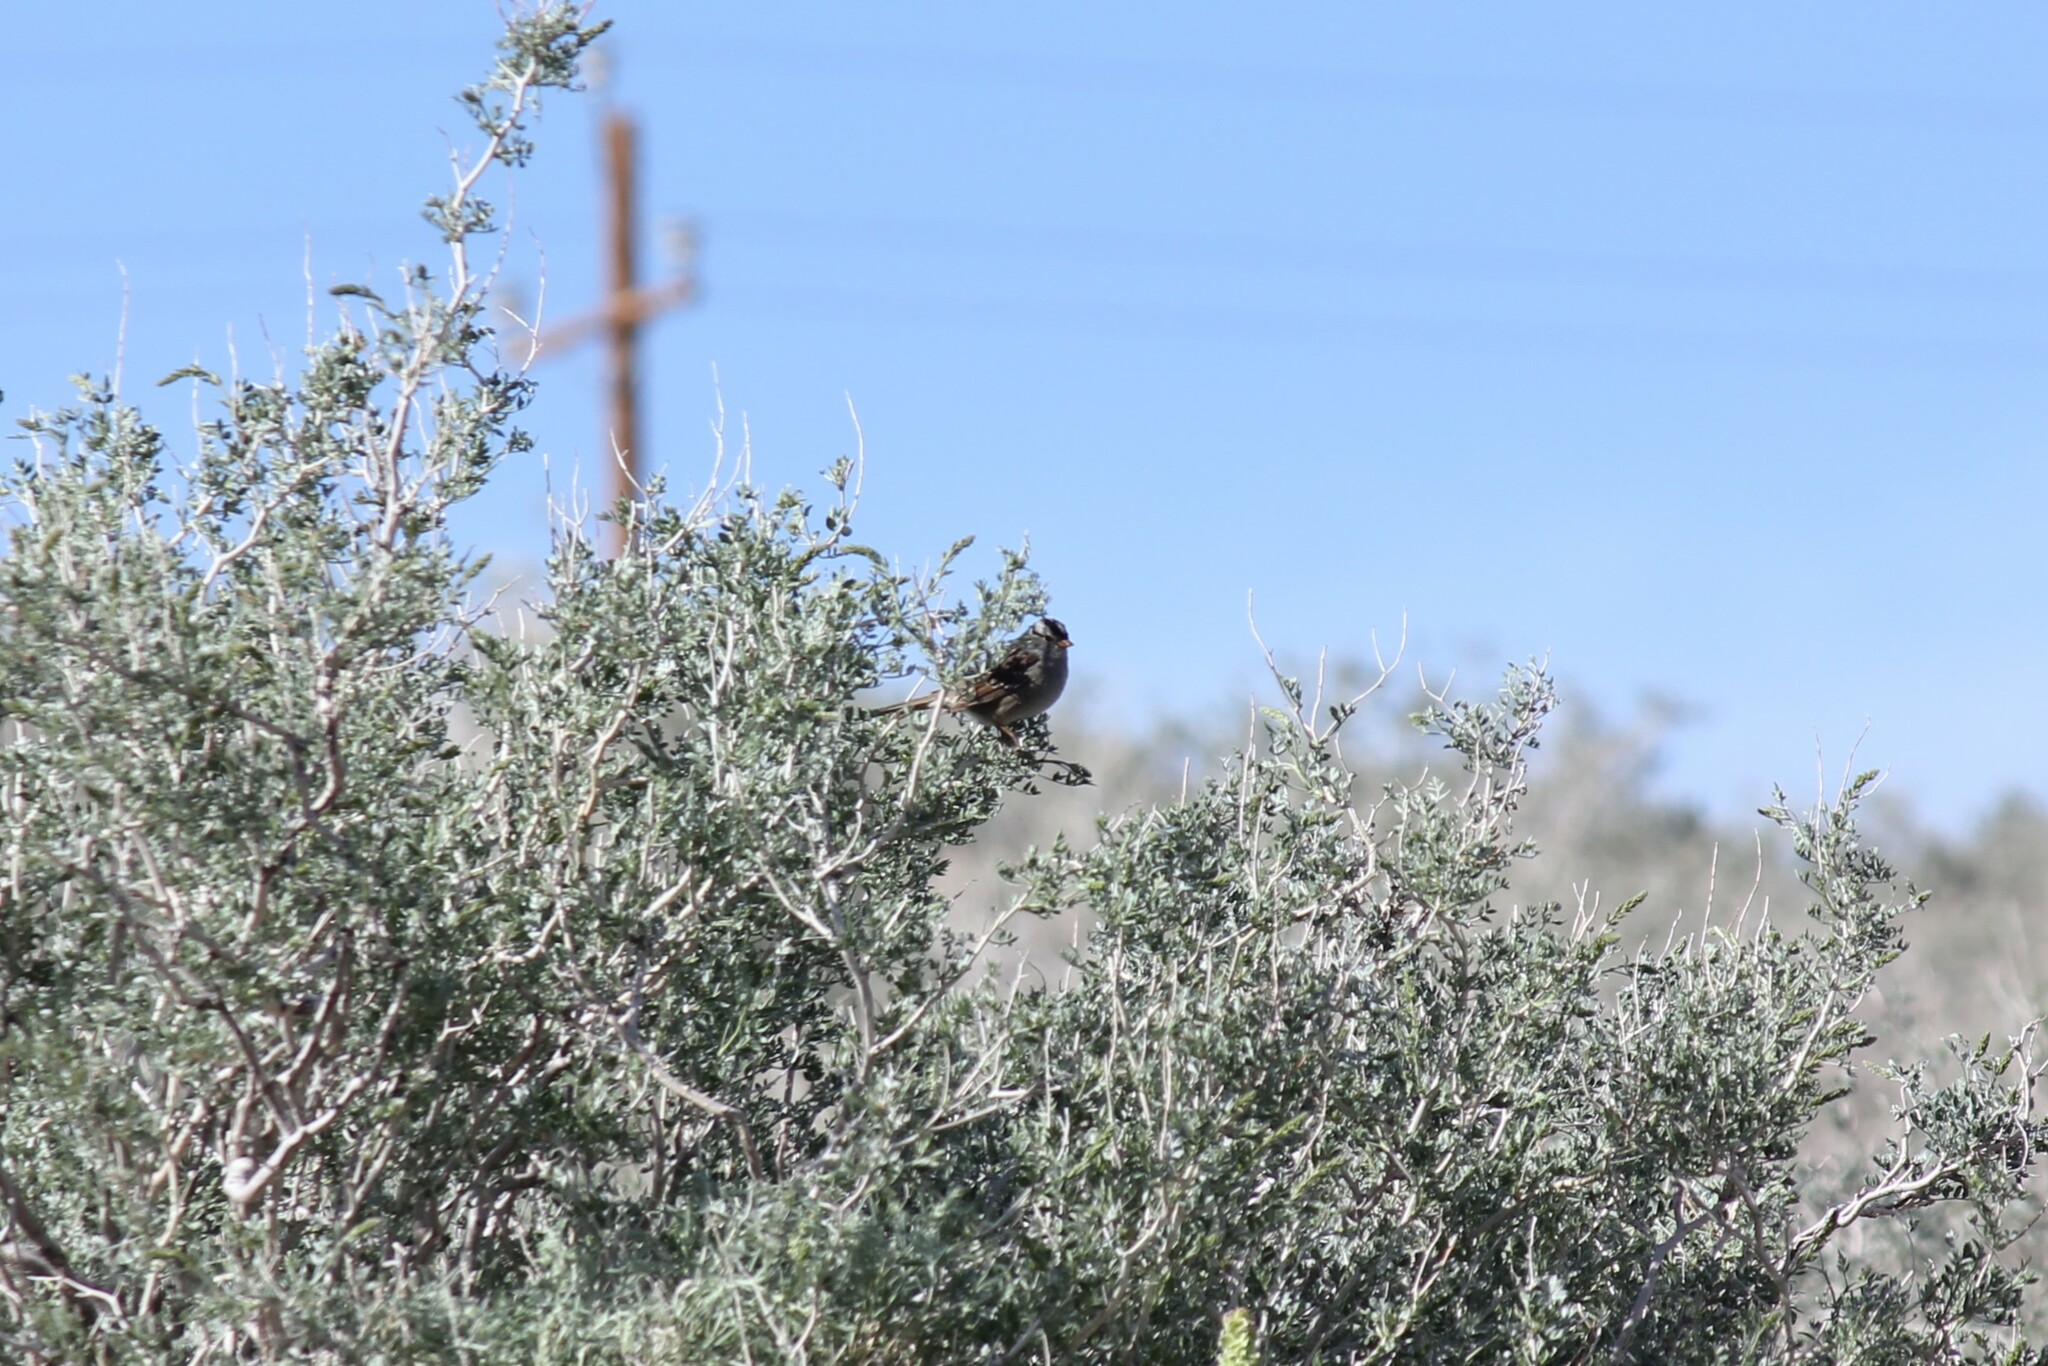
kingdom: Animalia
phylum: Chordata
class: Aves
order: Passeriformes
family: Passerellidae
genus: Zonotrichia
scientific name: Zonotrichia leucophrys
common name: White-crowned sparrow
